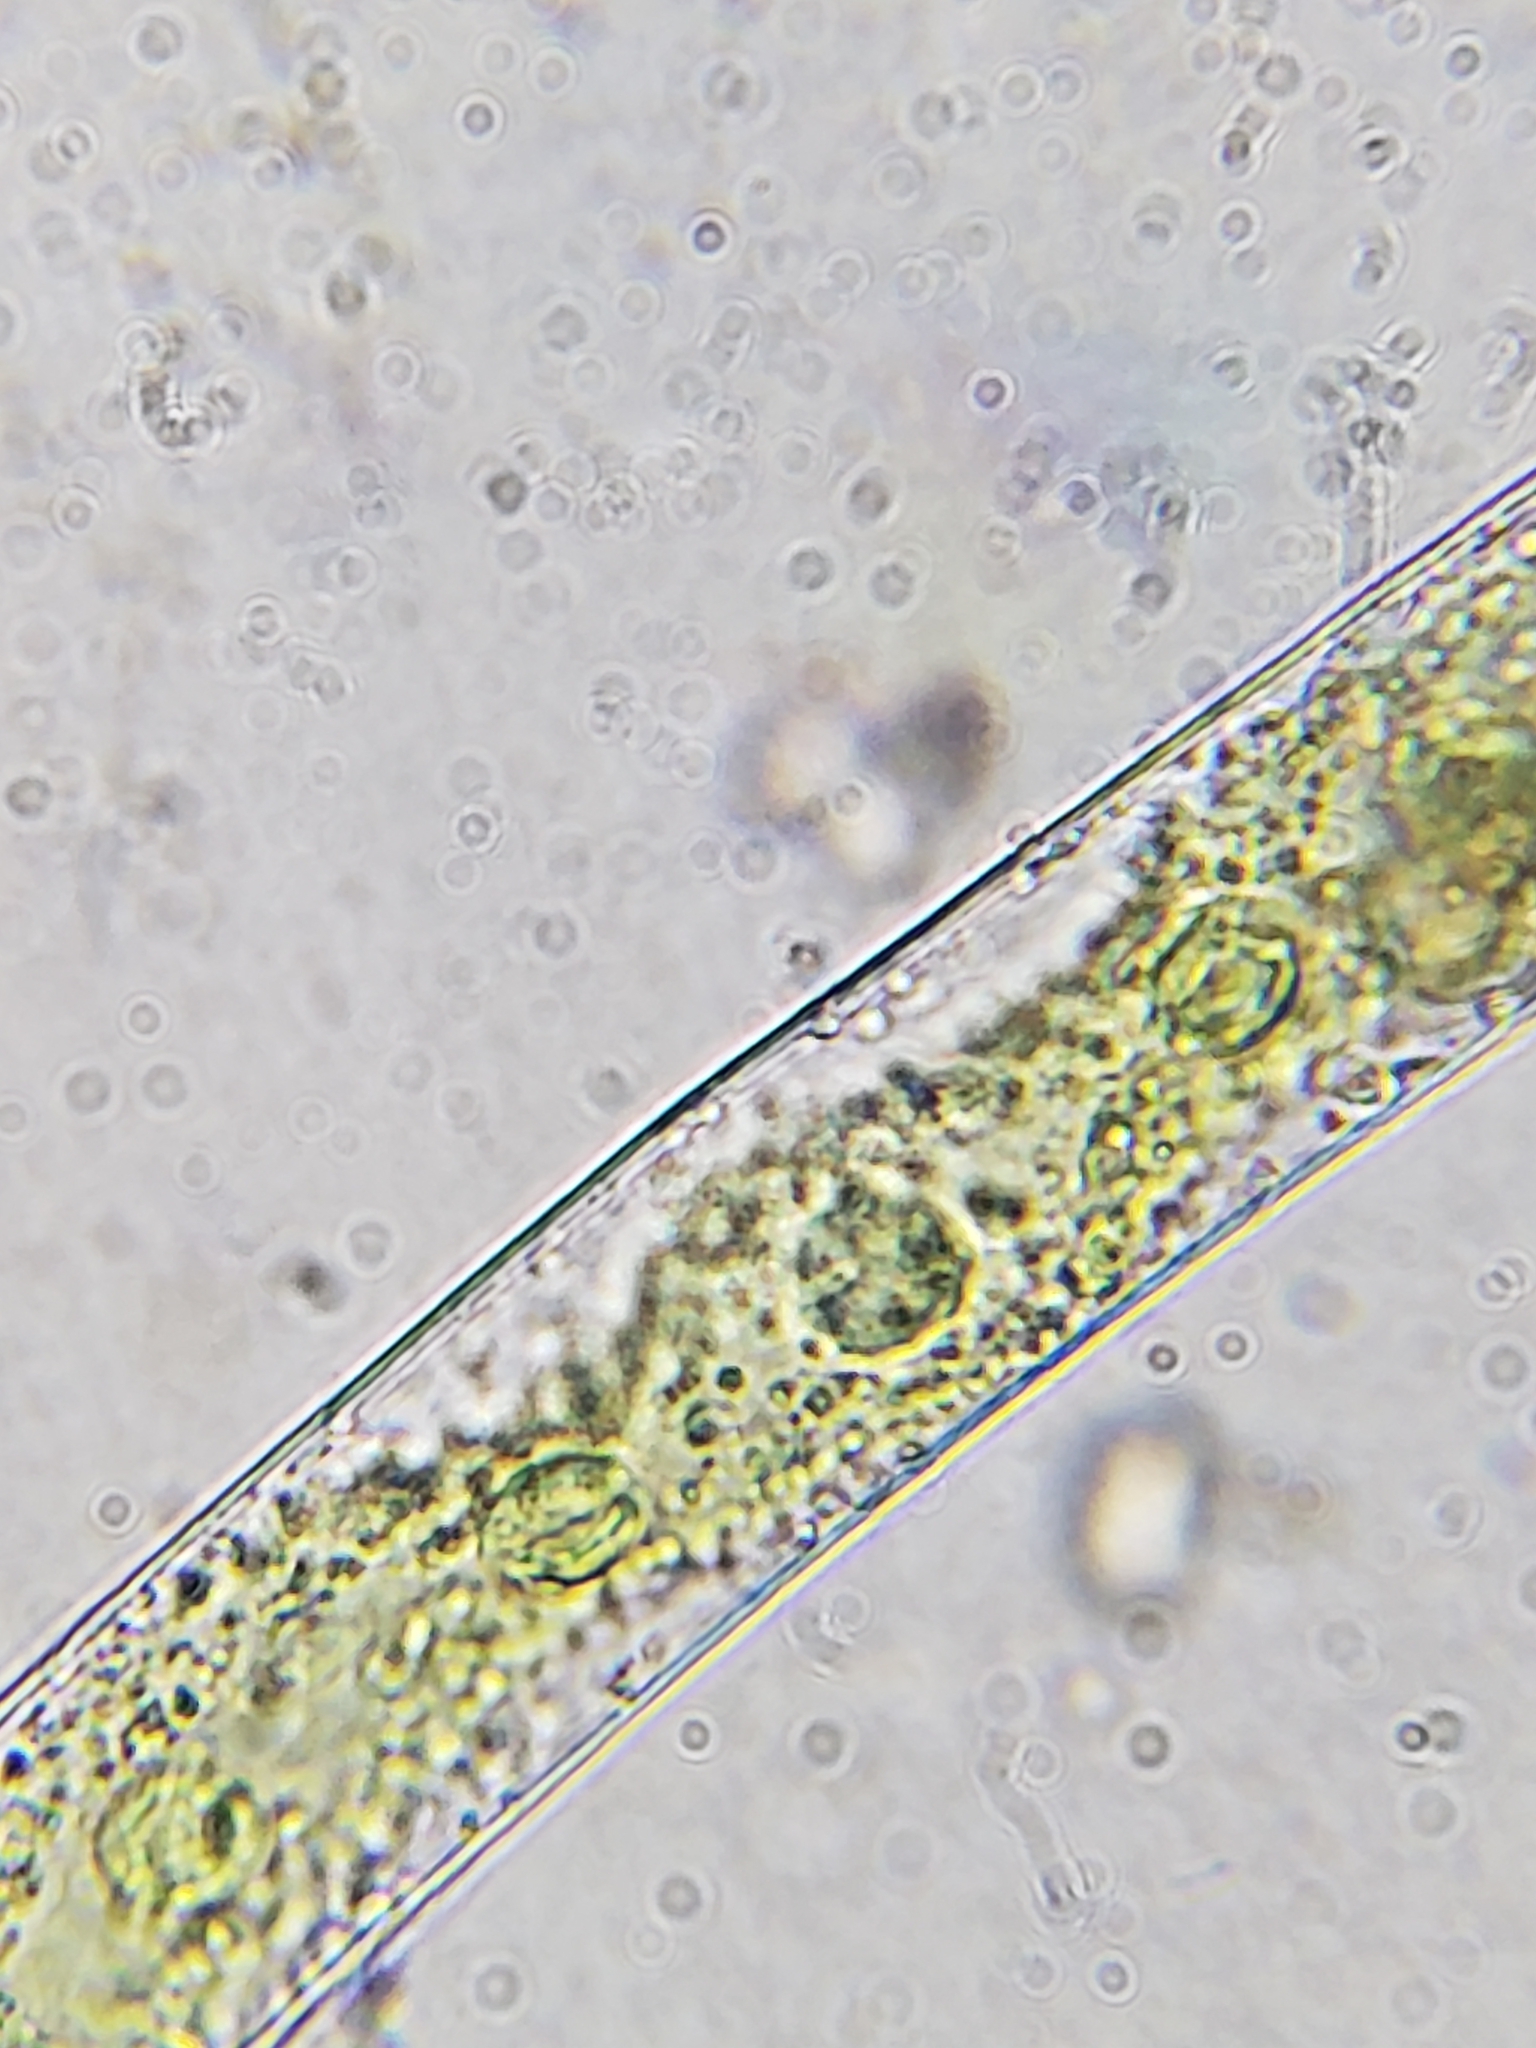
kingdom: Plantae
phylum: Charophyta
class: Zygnematophyceae
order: Zygnematales
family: Zygnemataceae
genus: Mougeotia
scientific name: Mougeotia
